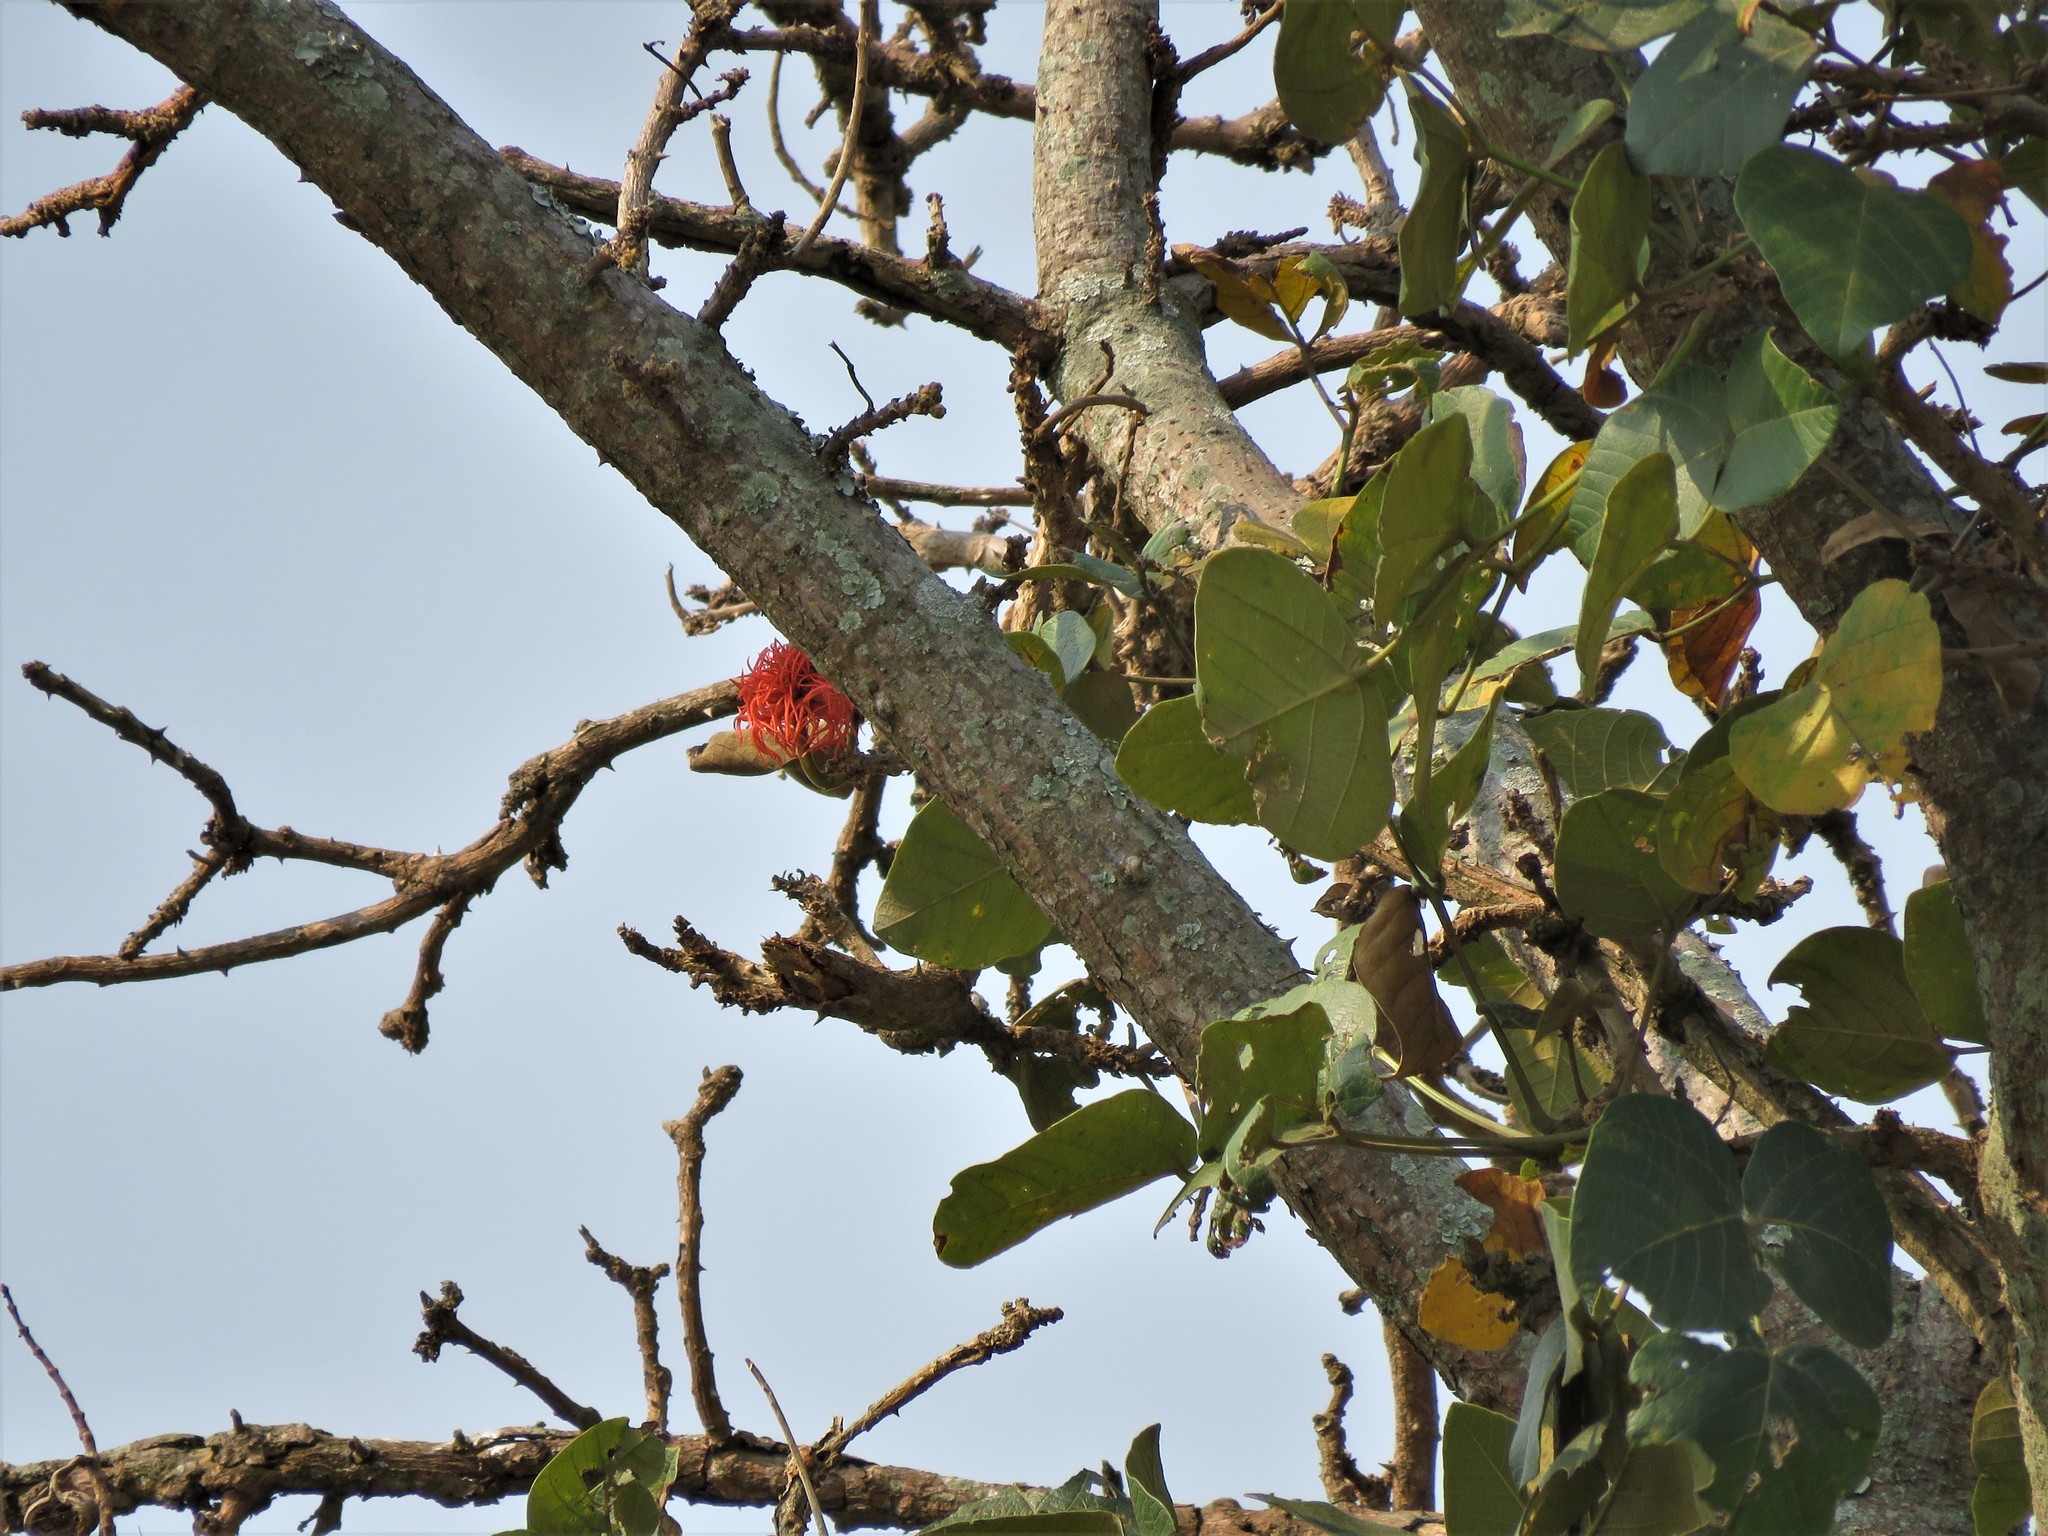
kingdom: Plantae
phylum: Tracheophyta
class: Magnoliopsida
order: Fabales
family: Fabaceae
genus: Erythrina
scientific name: Erythrina abyssinica
